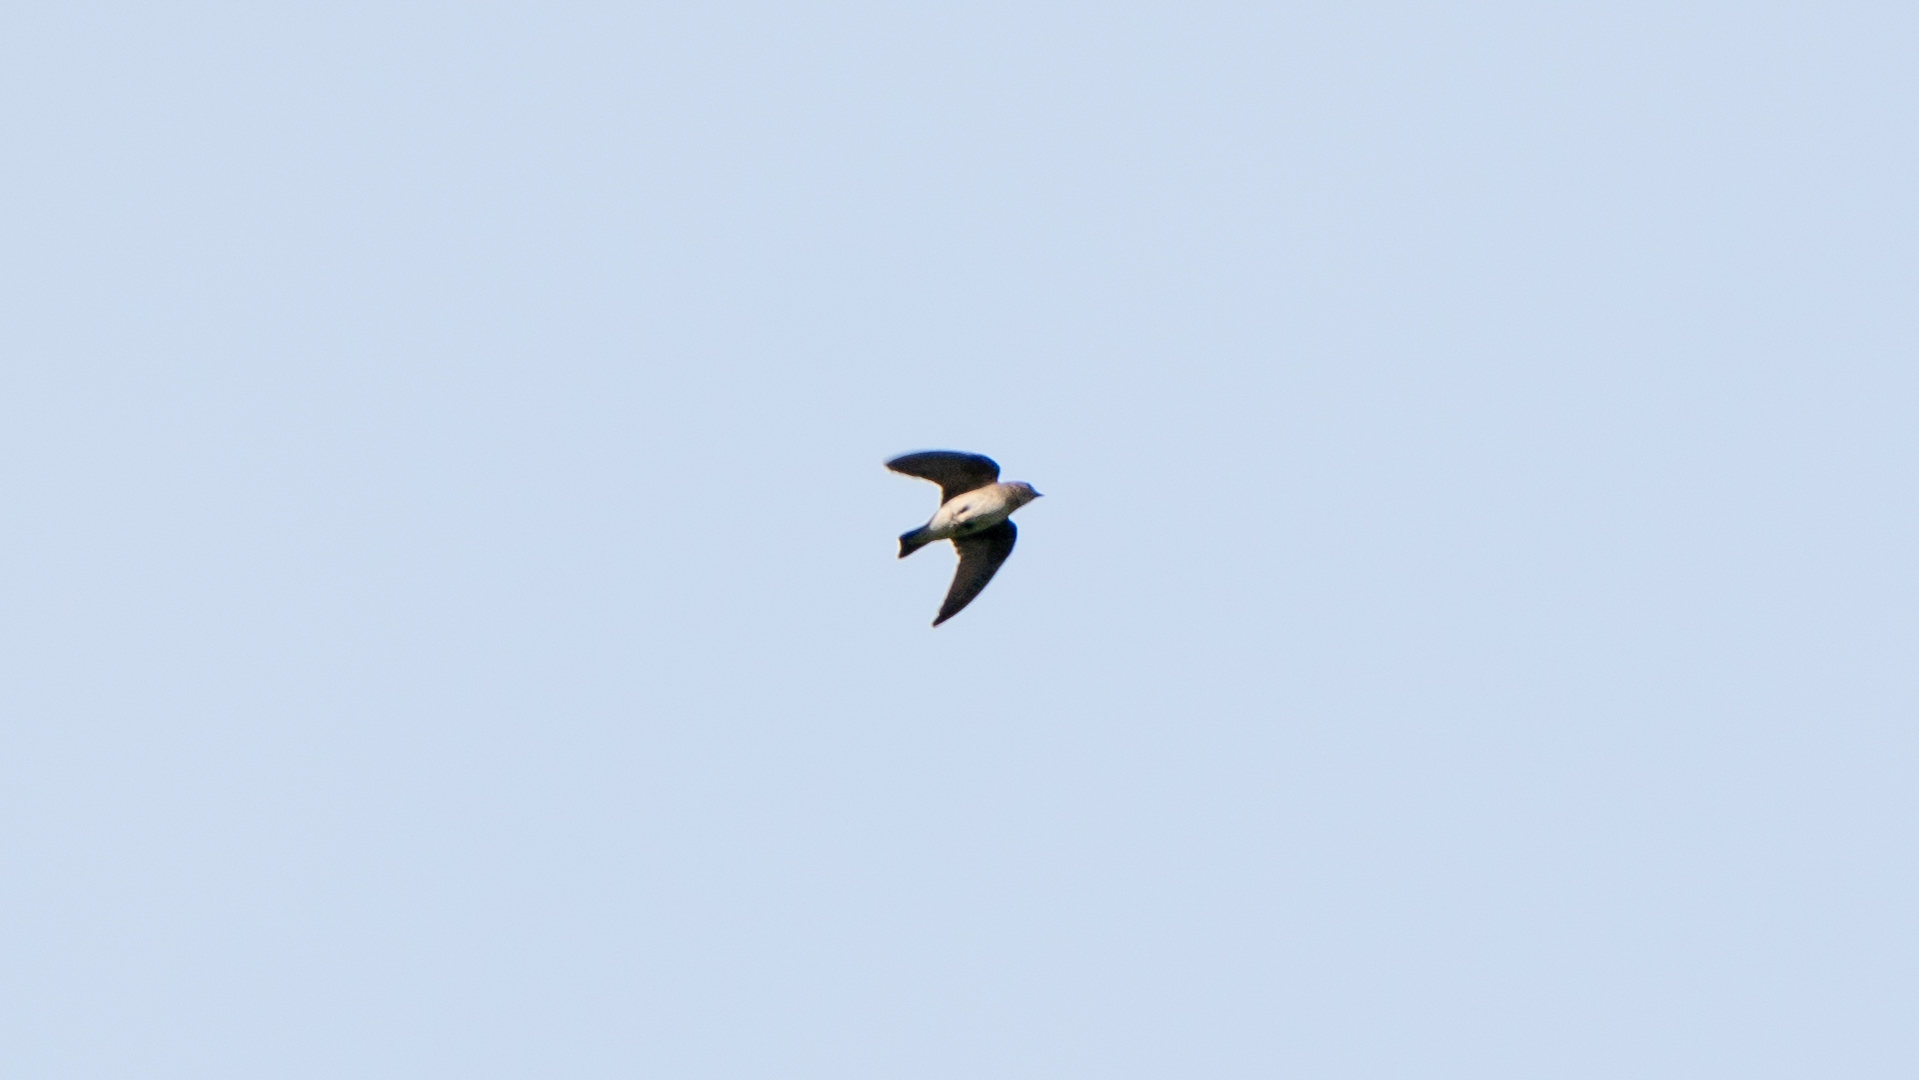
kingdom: Animalia
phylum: Chordata
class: Aves
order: Passeriformes
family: Hirundinidae
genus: Stelgidopteryx
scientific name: Stelgidopteryx serripennis
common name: Northern rough-winged swallow
